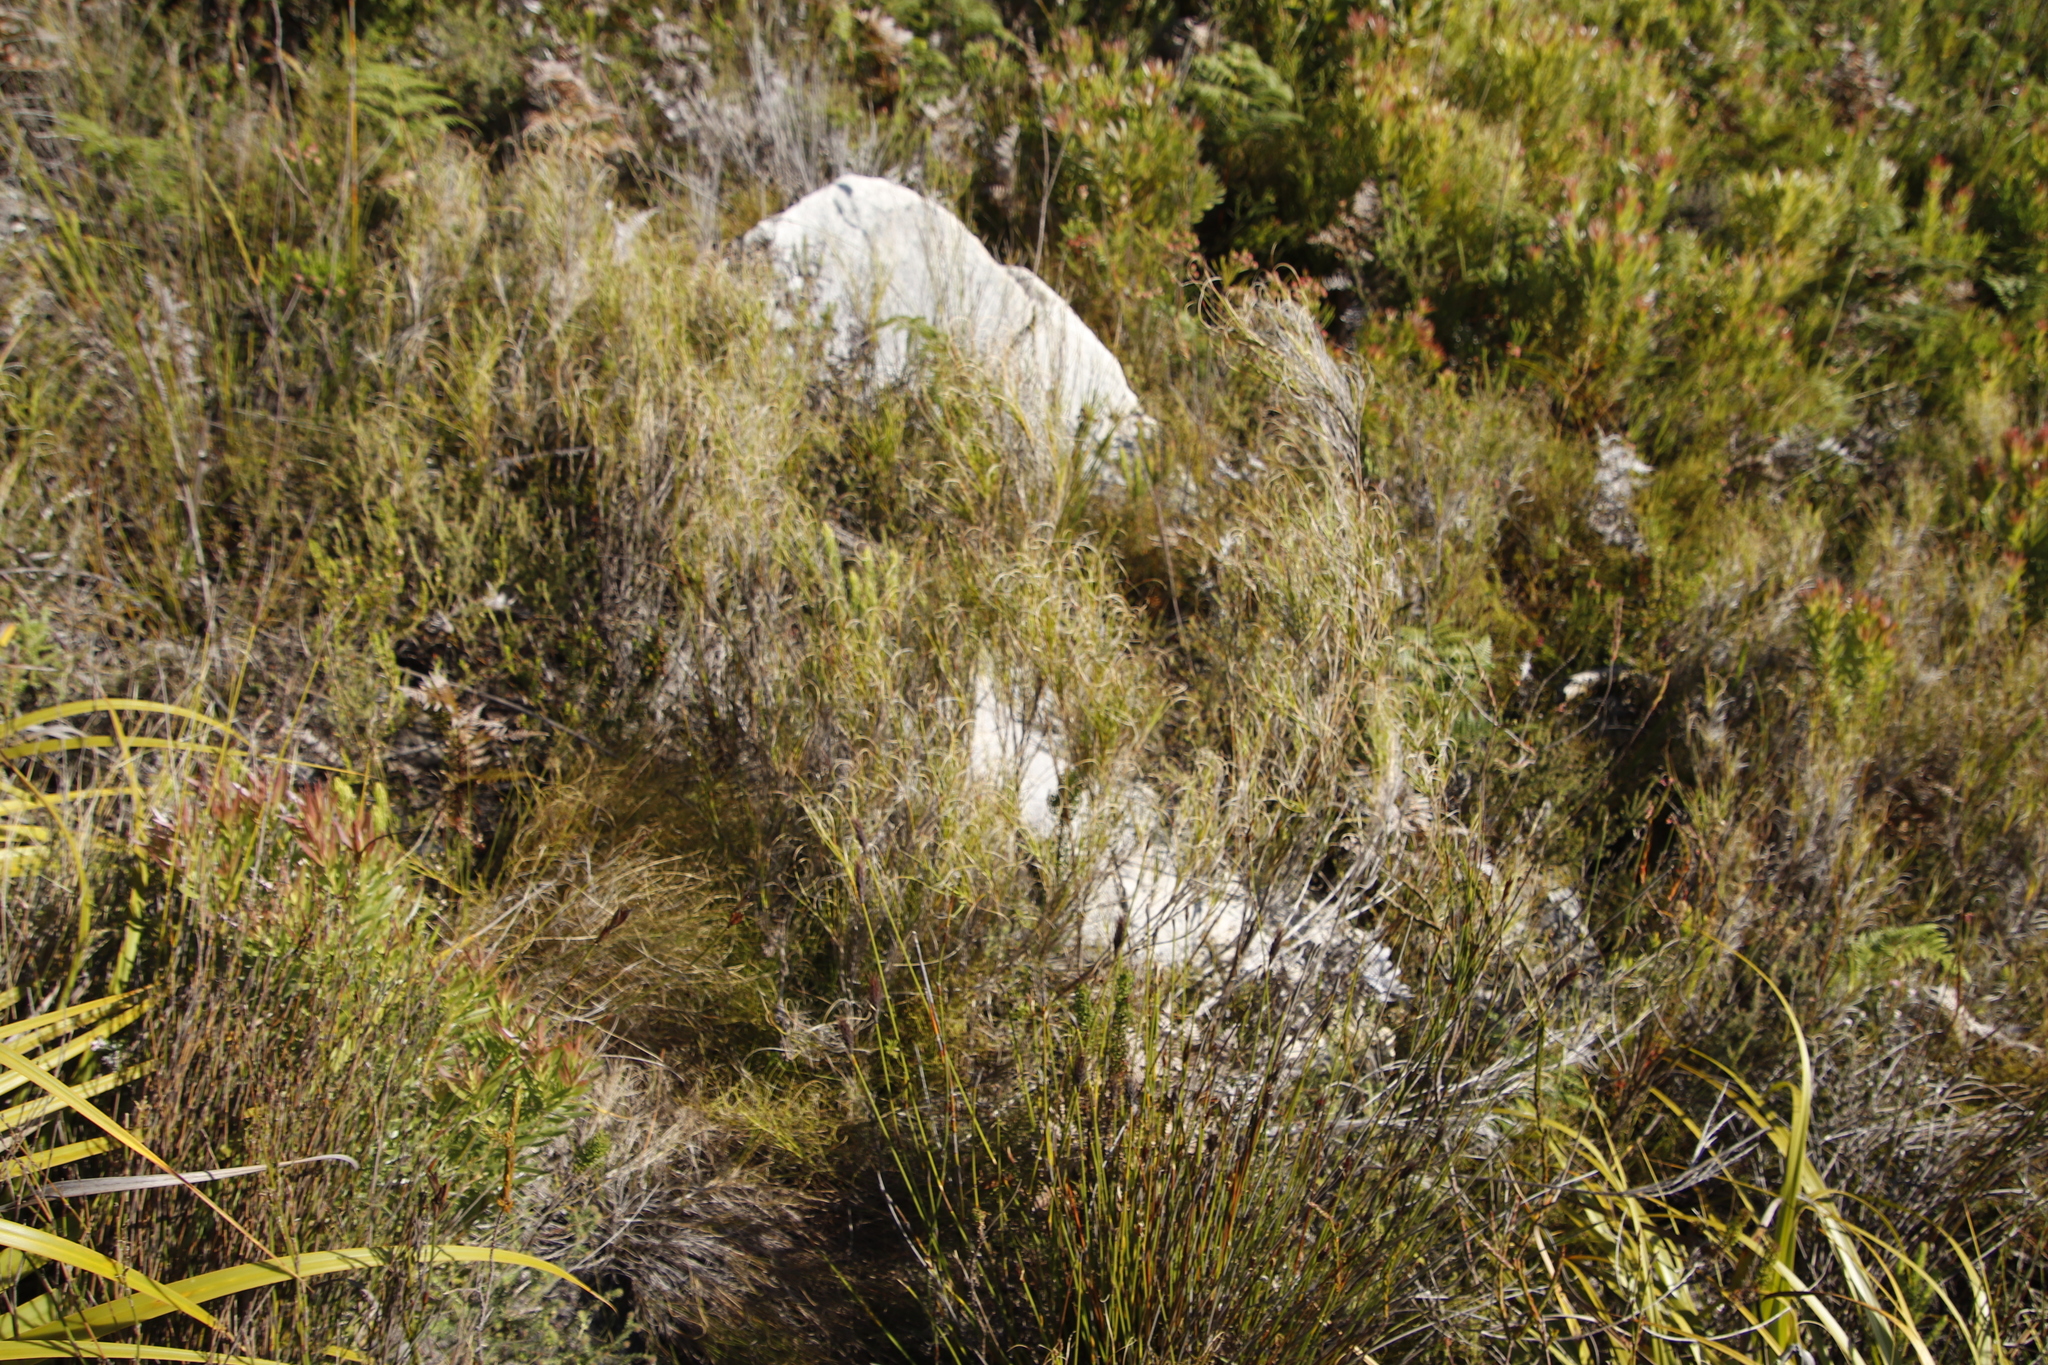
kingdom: Plantae
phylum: Tracheophyta
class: Liliopsida
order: Poales
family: Poaceae
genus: Pseudopentameris
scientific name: Pseudopentameris macrantha
